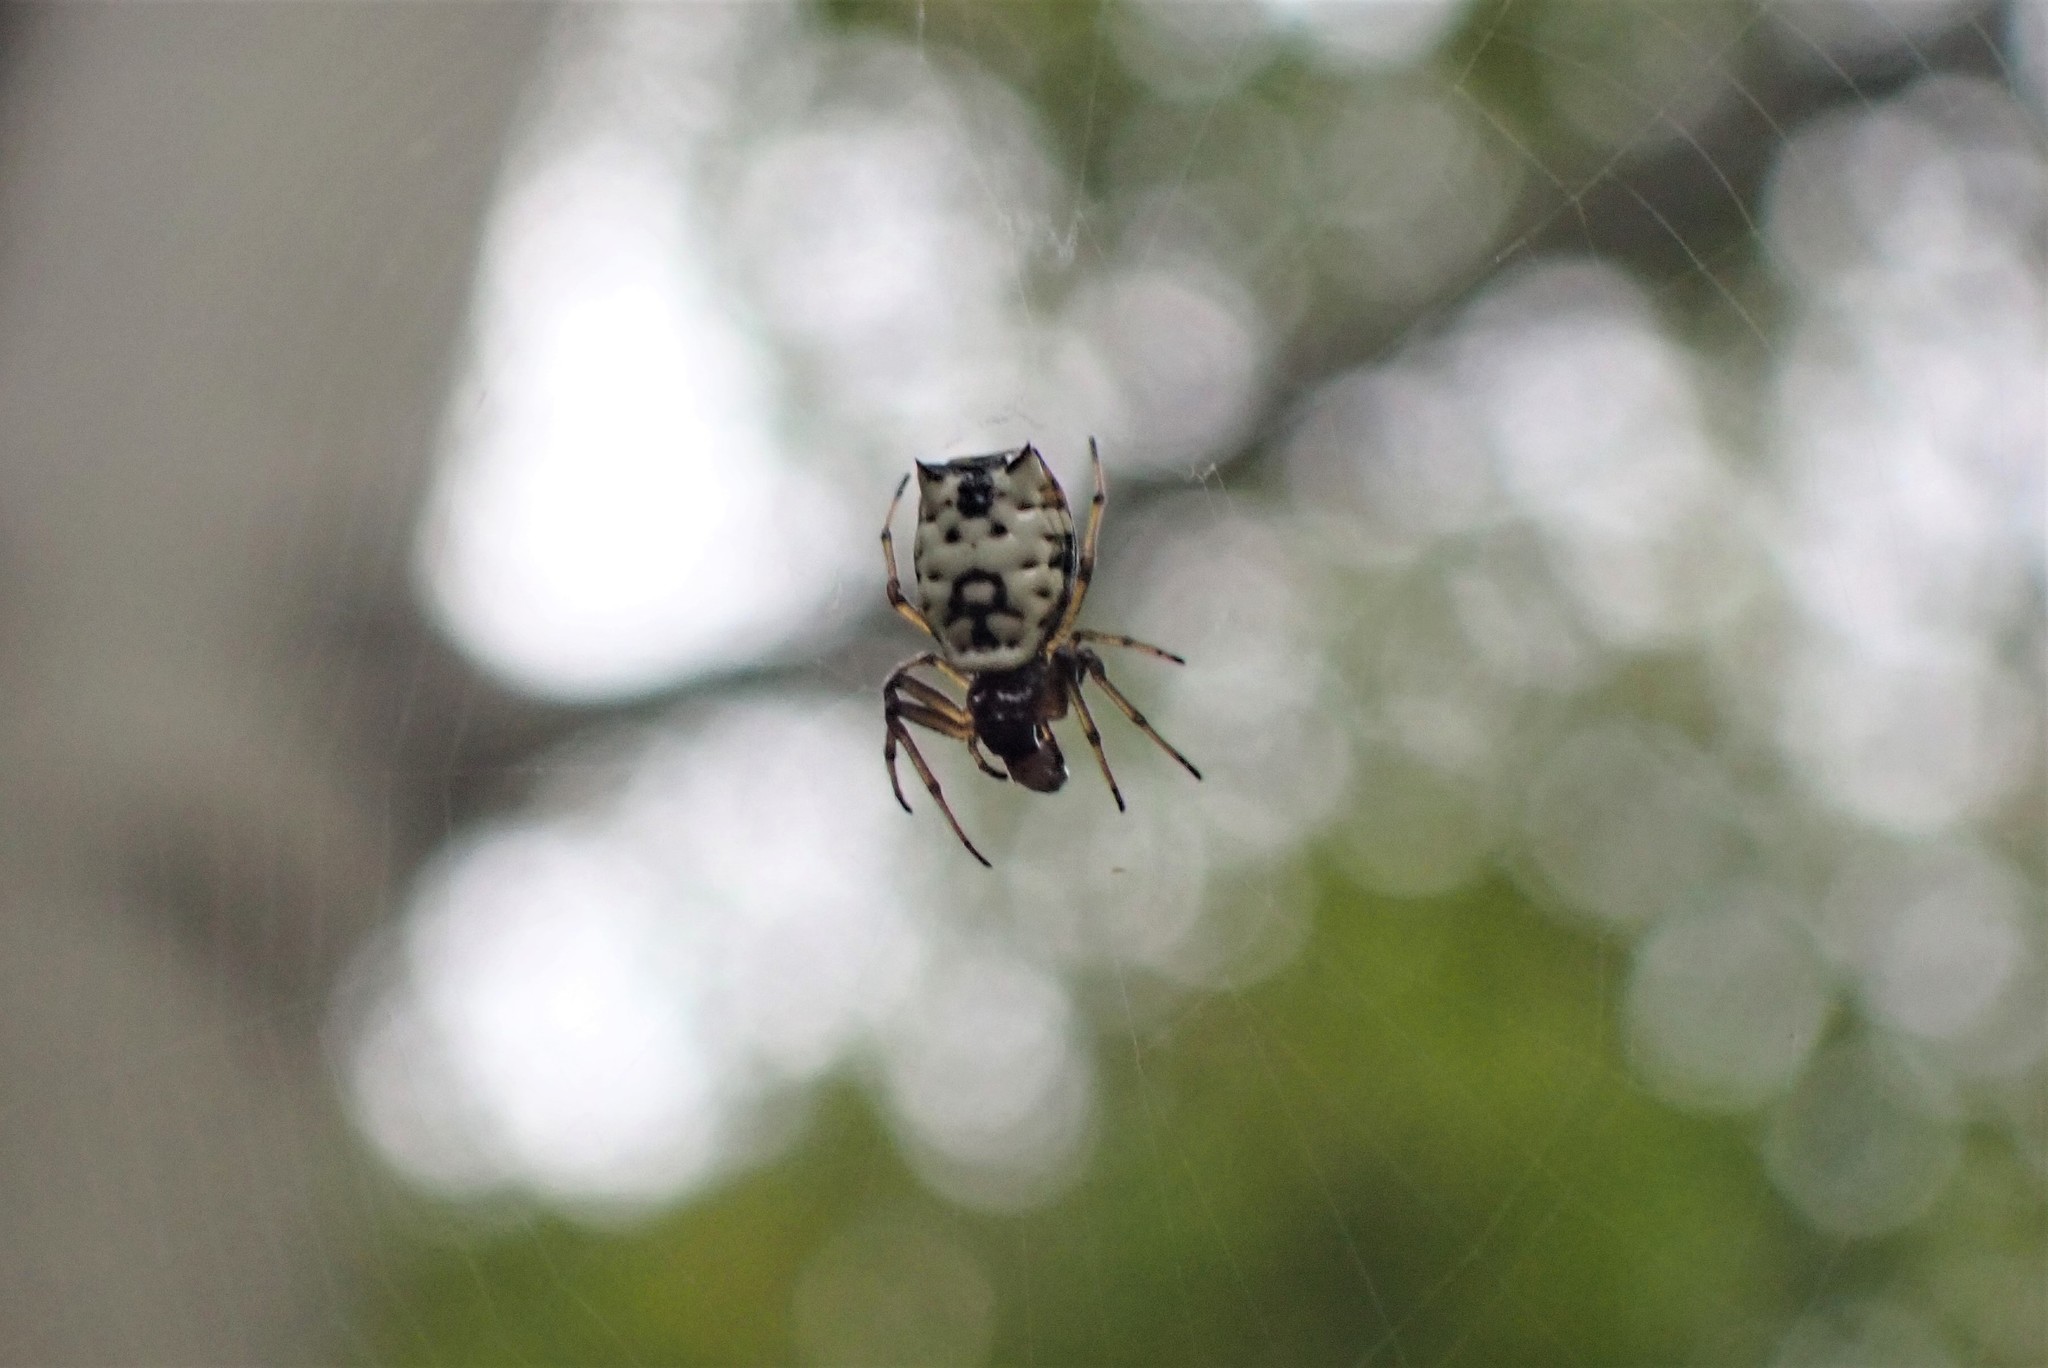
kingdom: Animalia
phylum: Arthropoda
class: Arachnida
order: Araneae
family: Araneidae
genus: Micrathena
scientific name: Micrathena mitrata
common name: Orb weavers
